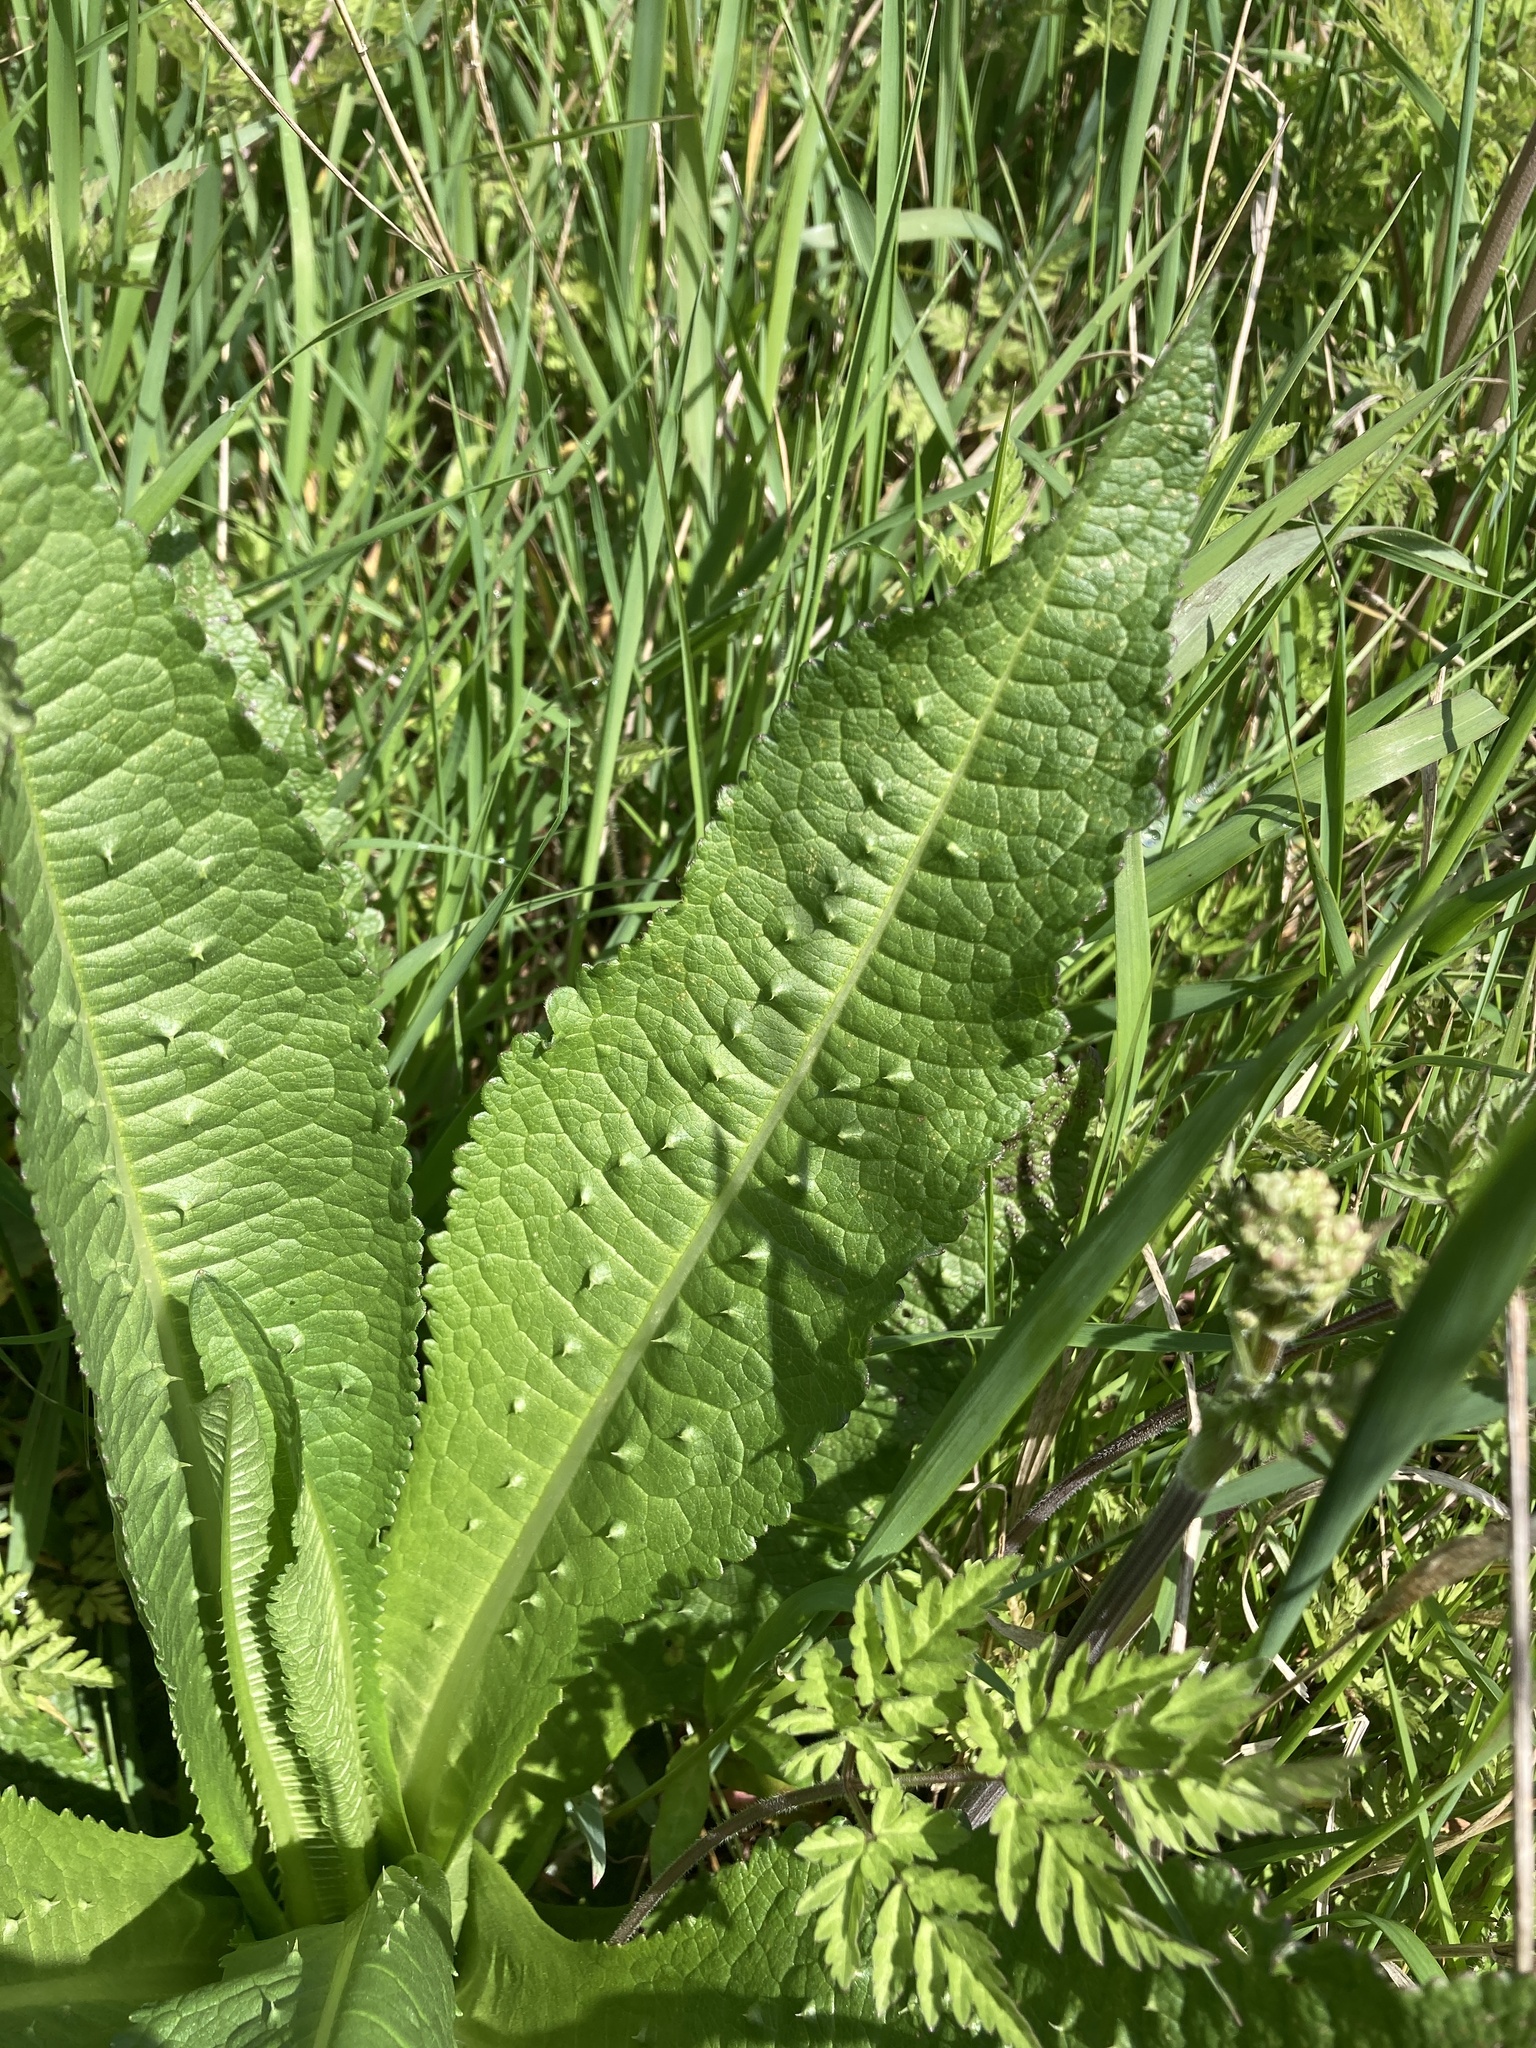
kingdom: Plantae
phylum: Tracheophyta
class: Magnoliopsida
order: Dipsacales
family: Caprifoliaceae
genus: Dipsacus
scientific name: Dipsacus fullonum
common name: Teasel
